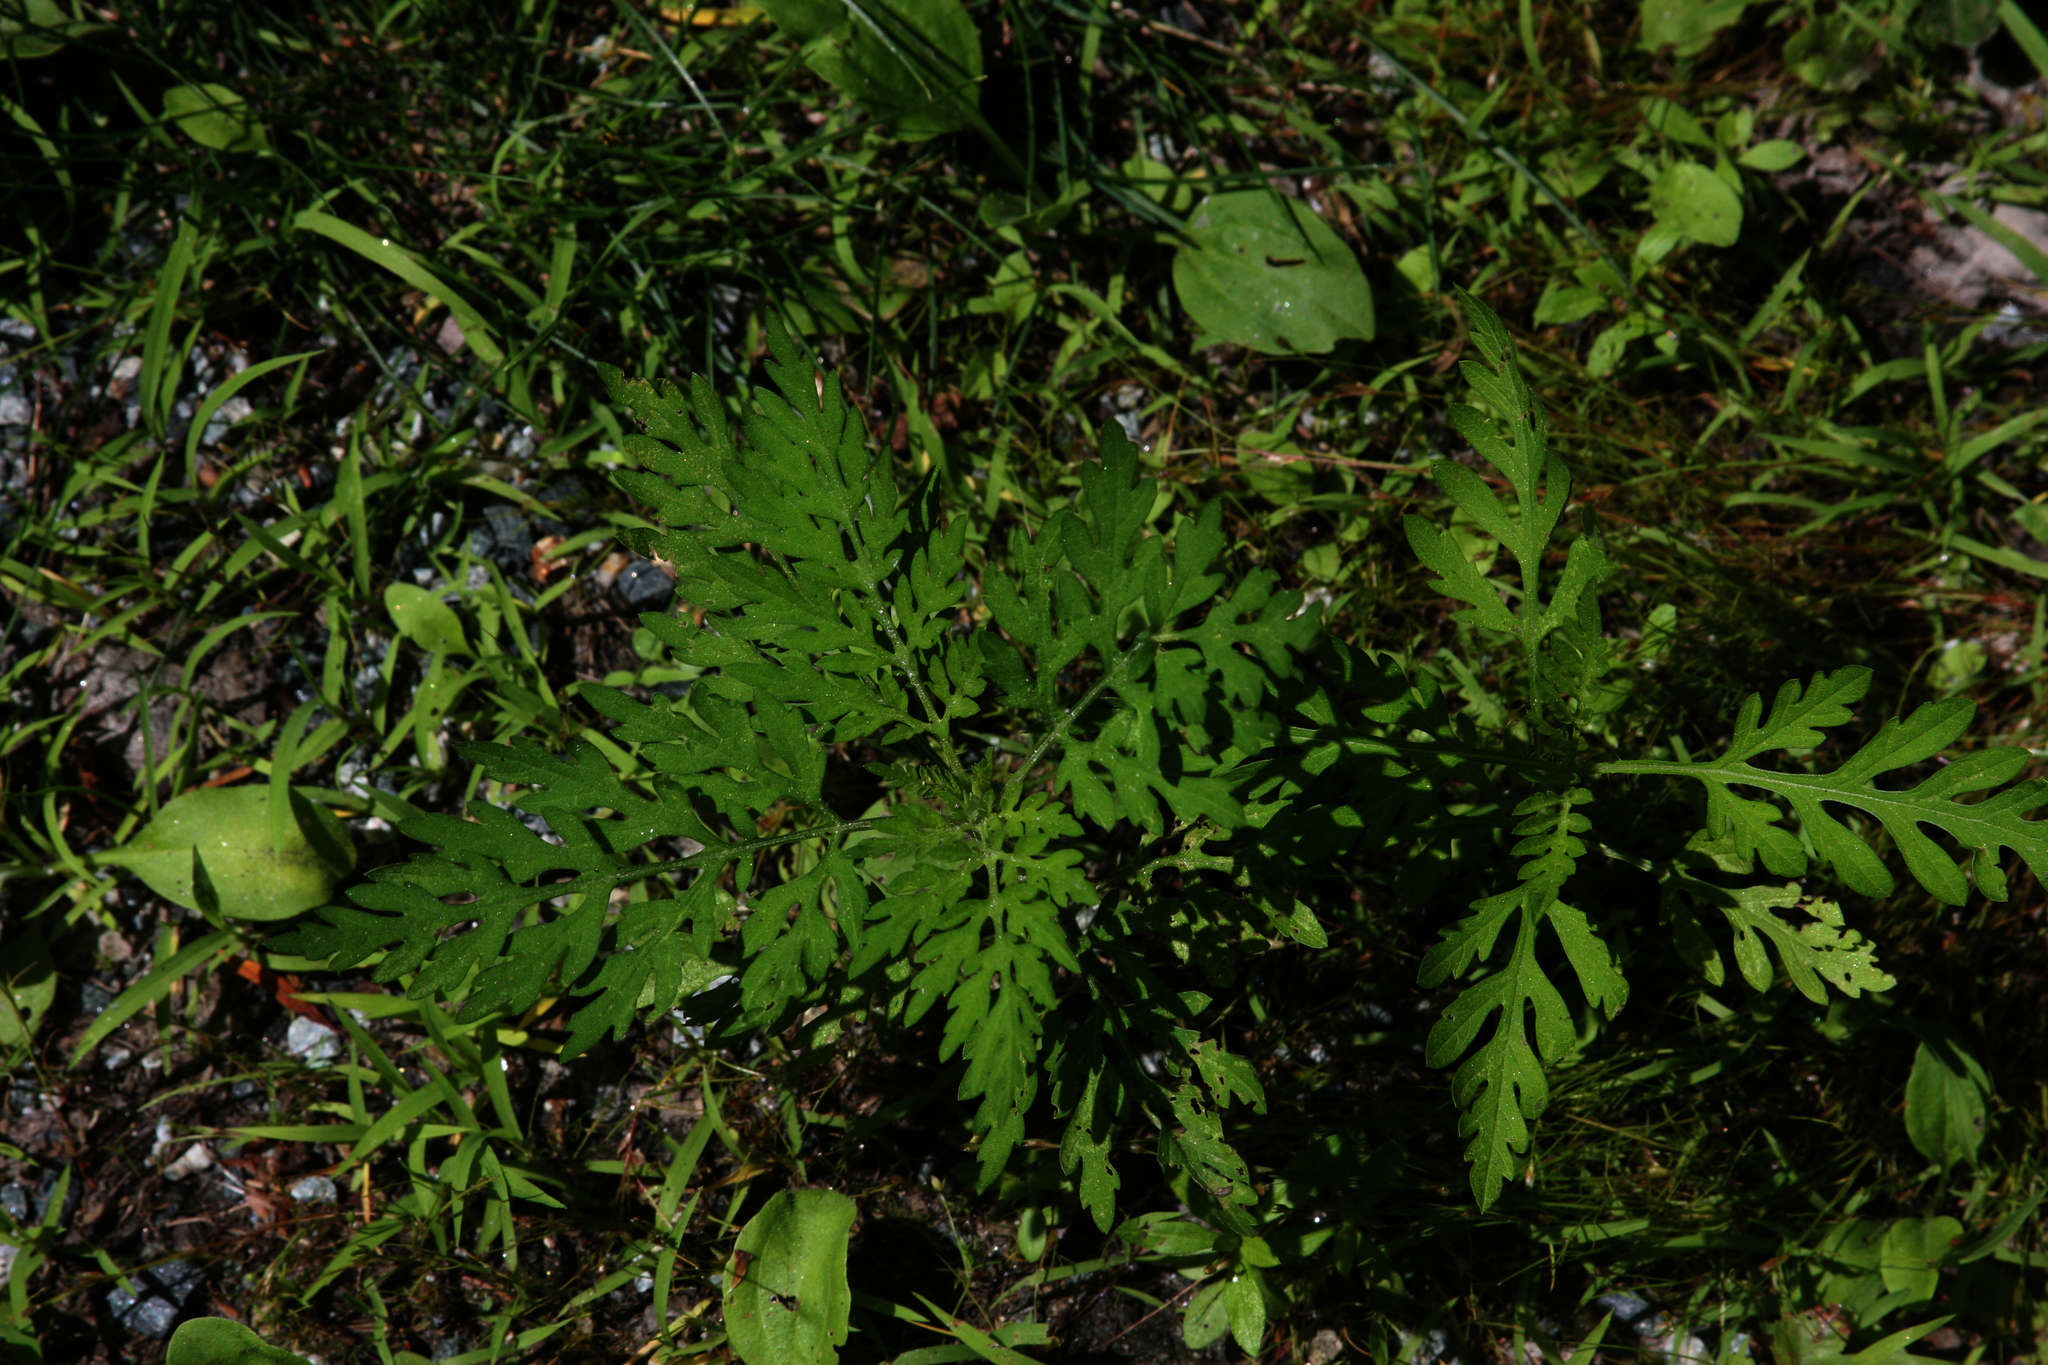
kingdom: Plantae
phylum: Tracheophyta
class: Magnoliopsida
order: Asterales
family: Asteraceae
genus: Ambrosia
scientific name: Ambrosia artemisiifolia
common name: Annual ragweed
